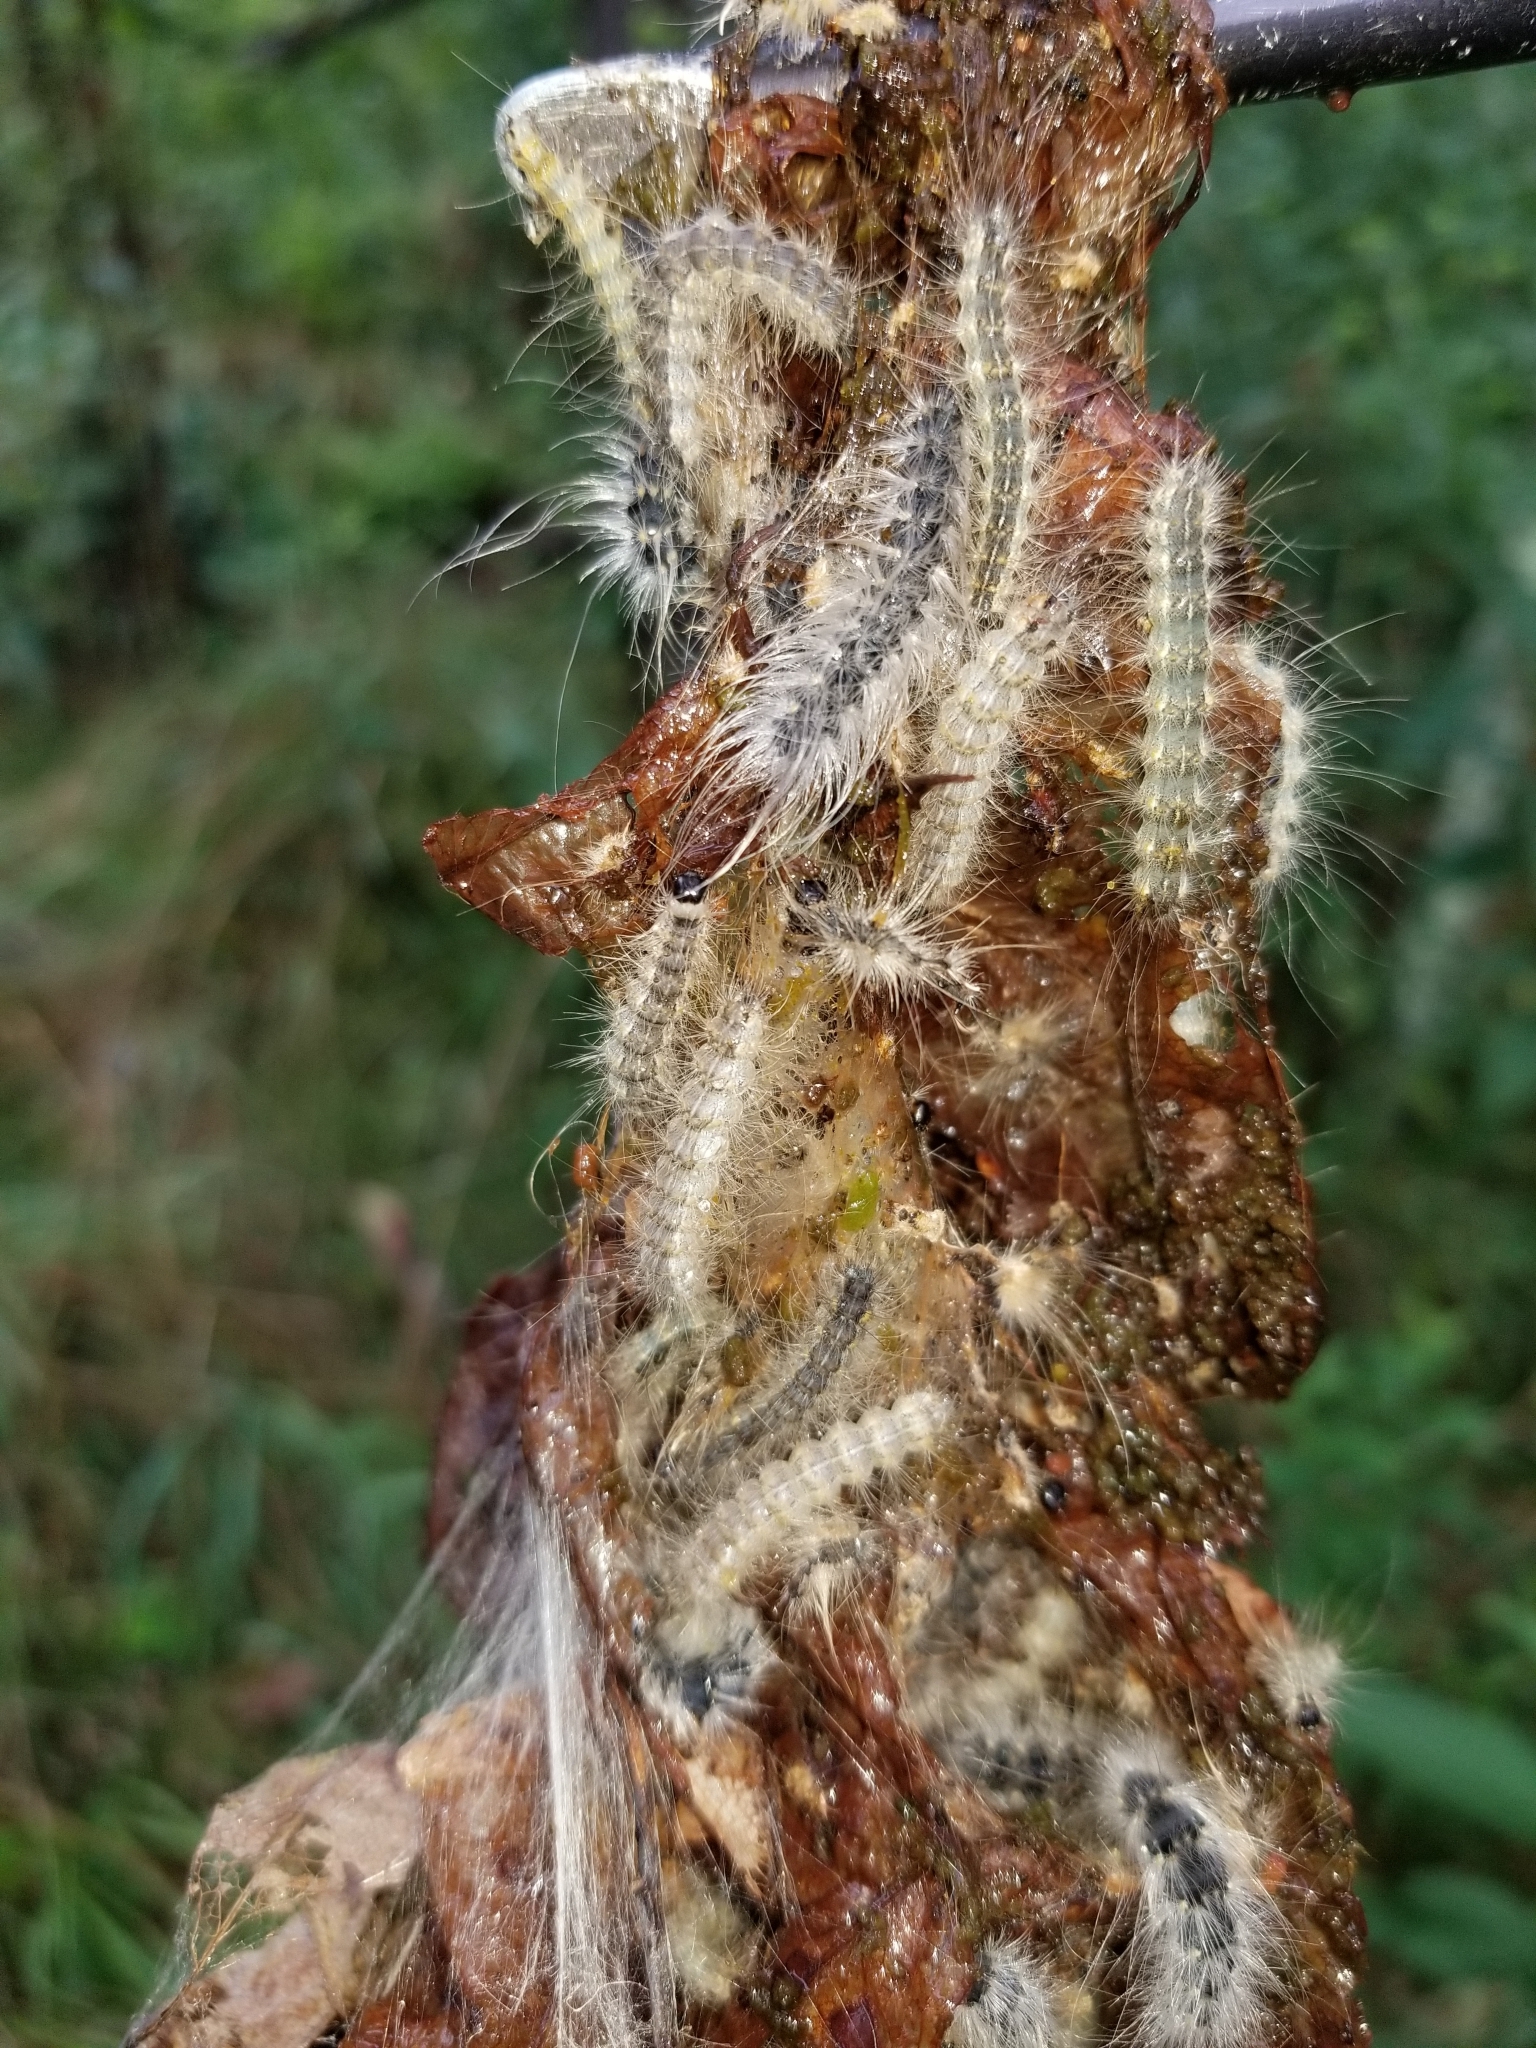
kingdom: Animalia
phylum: Arthropoda
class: Insecta
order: Lepidoptera
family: Erebidae
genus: Hyphantria
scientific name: Hyphantria cunea
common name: American white moth
